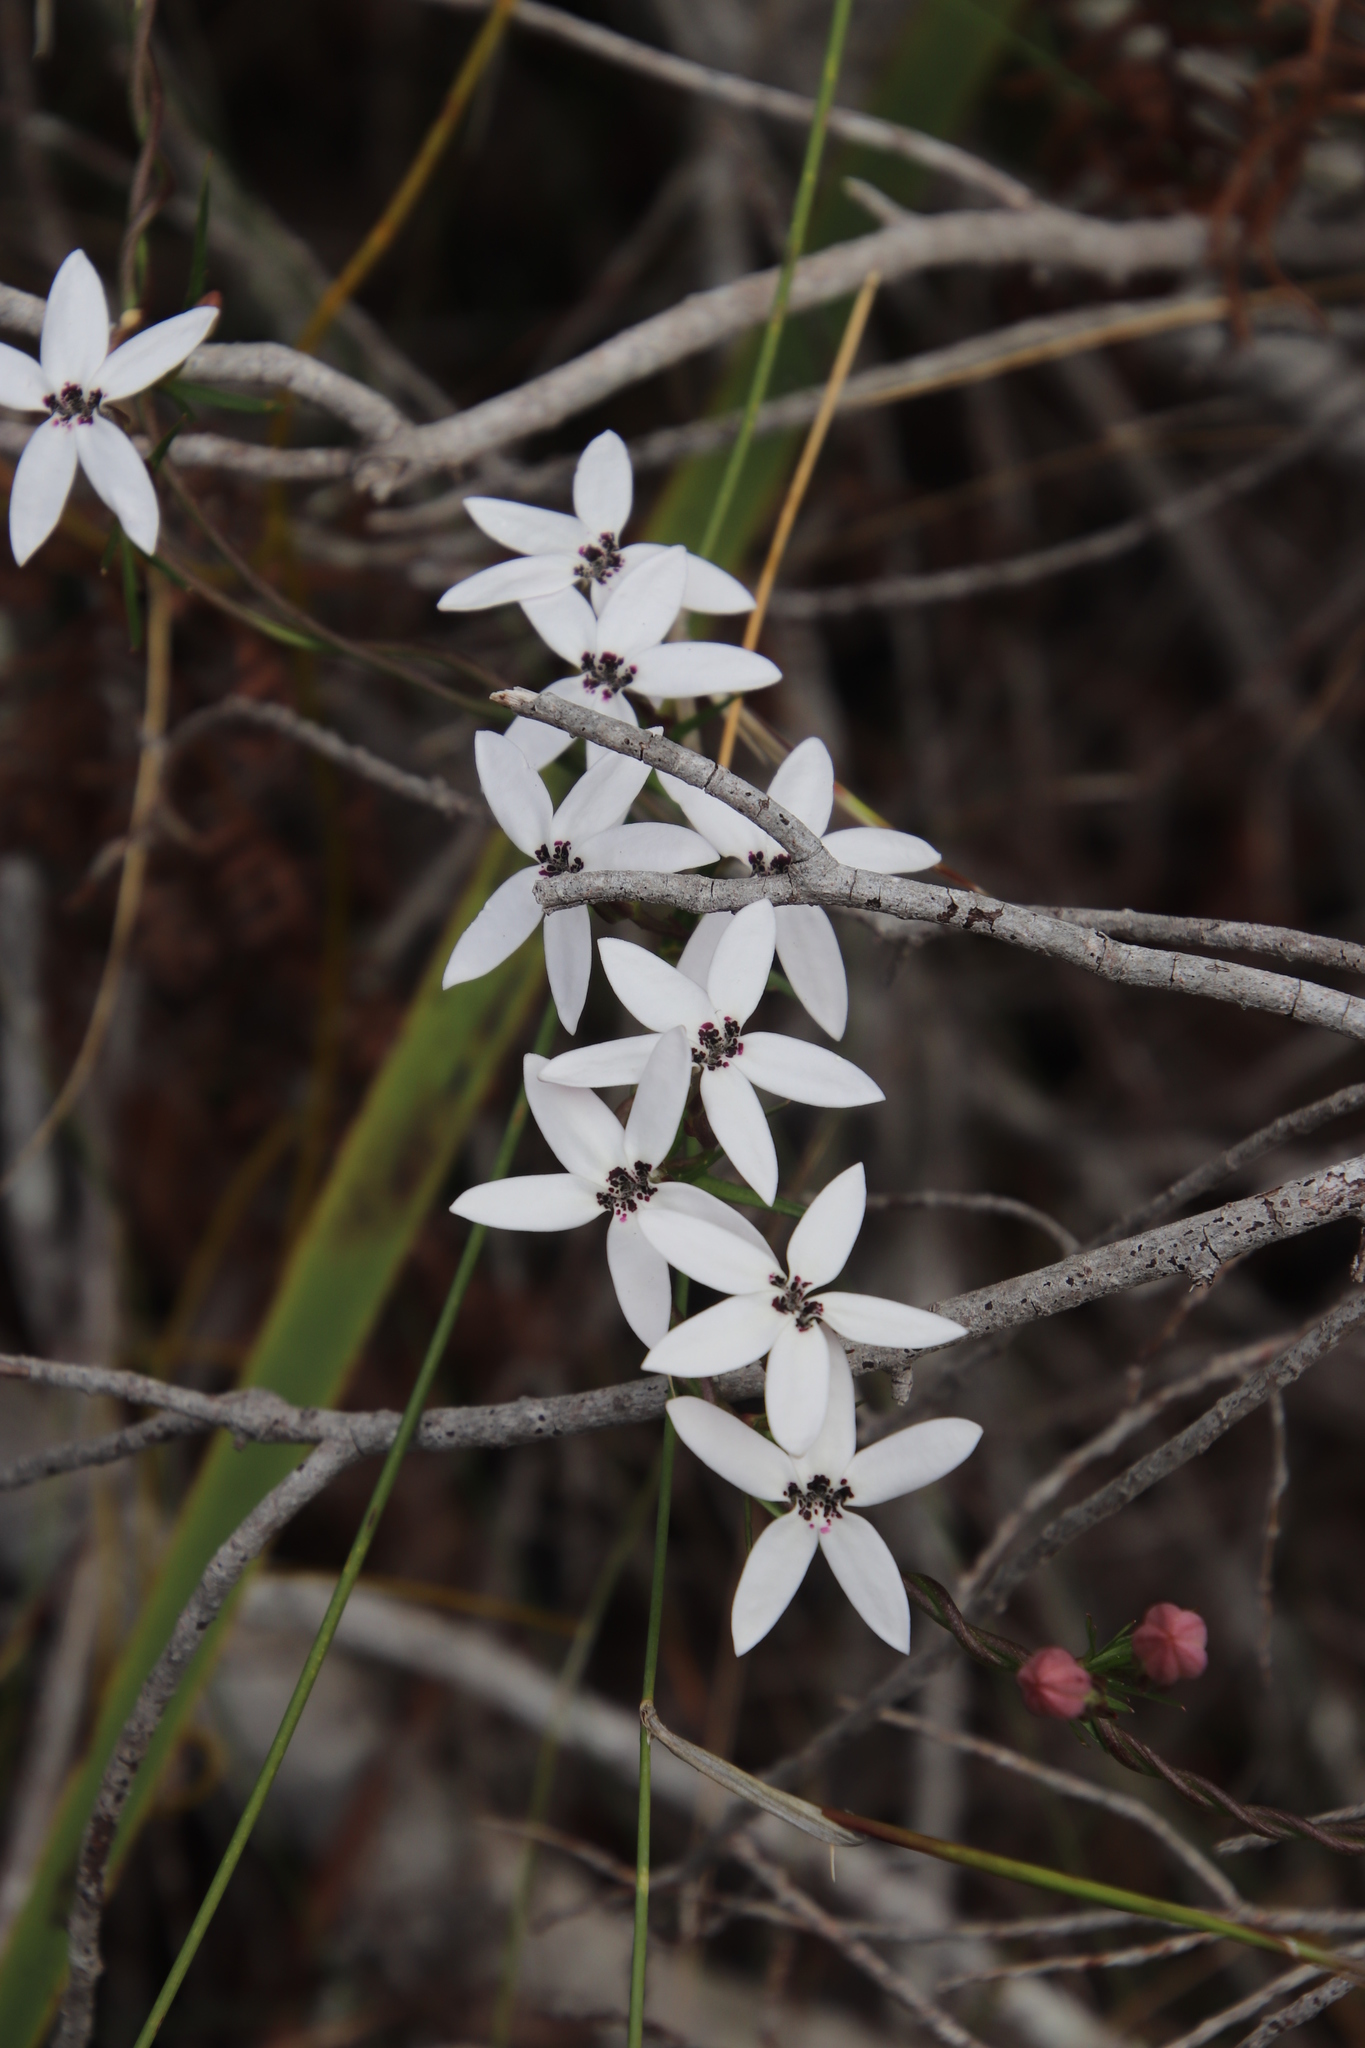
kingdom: Plantae
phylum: Tracheophyta
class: Magnoliopsida
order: Asterales
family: Campanulaceae
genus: Cyphia
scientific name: Cyphia volubilis
